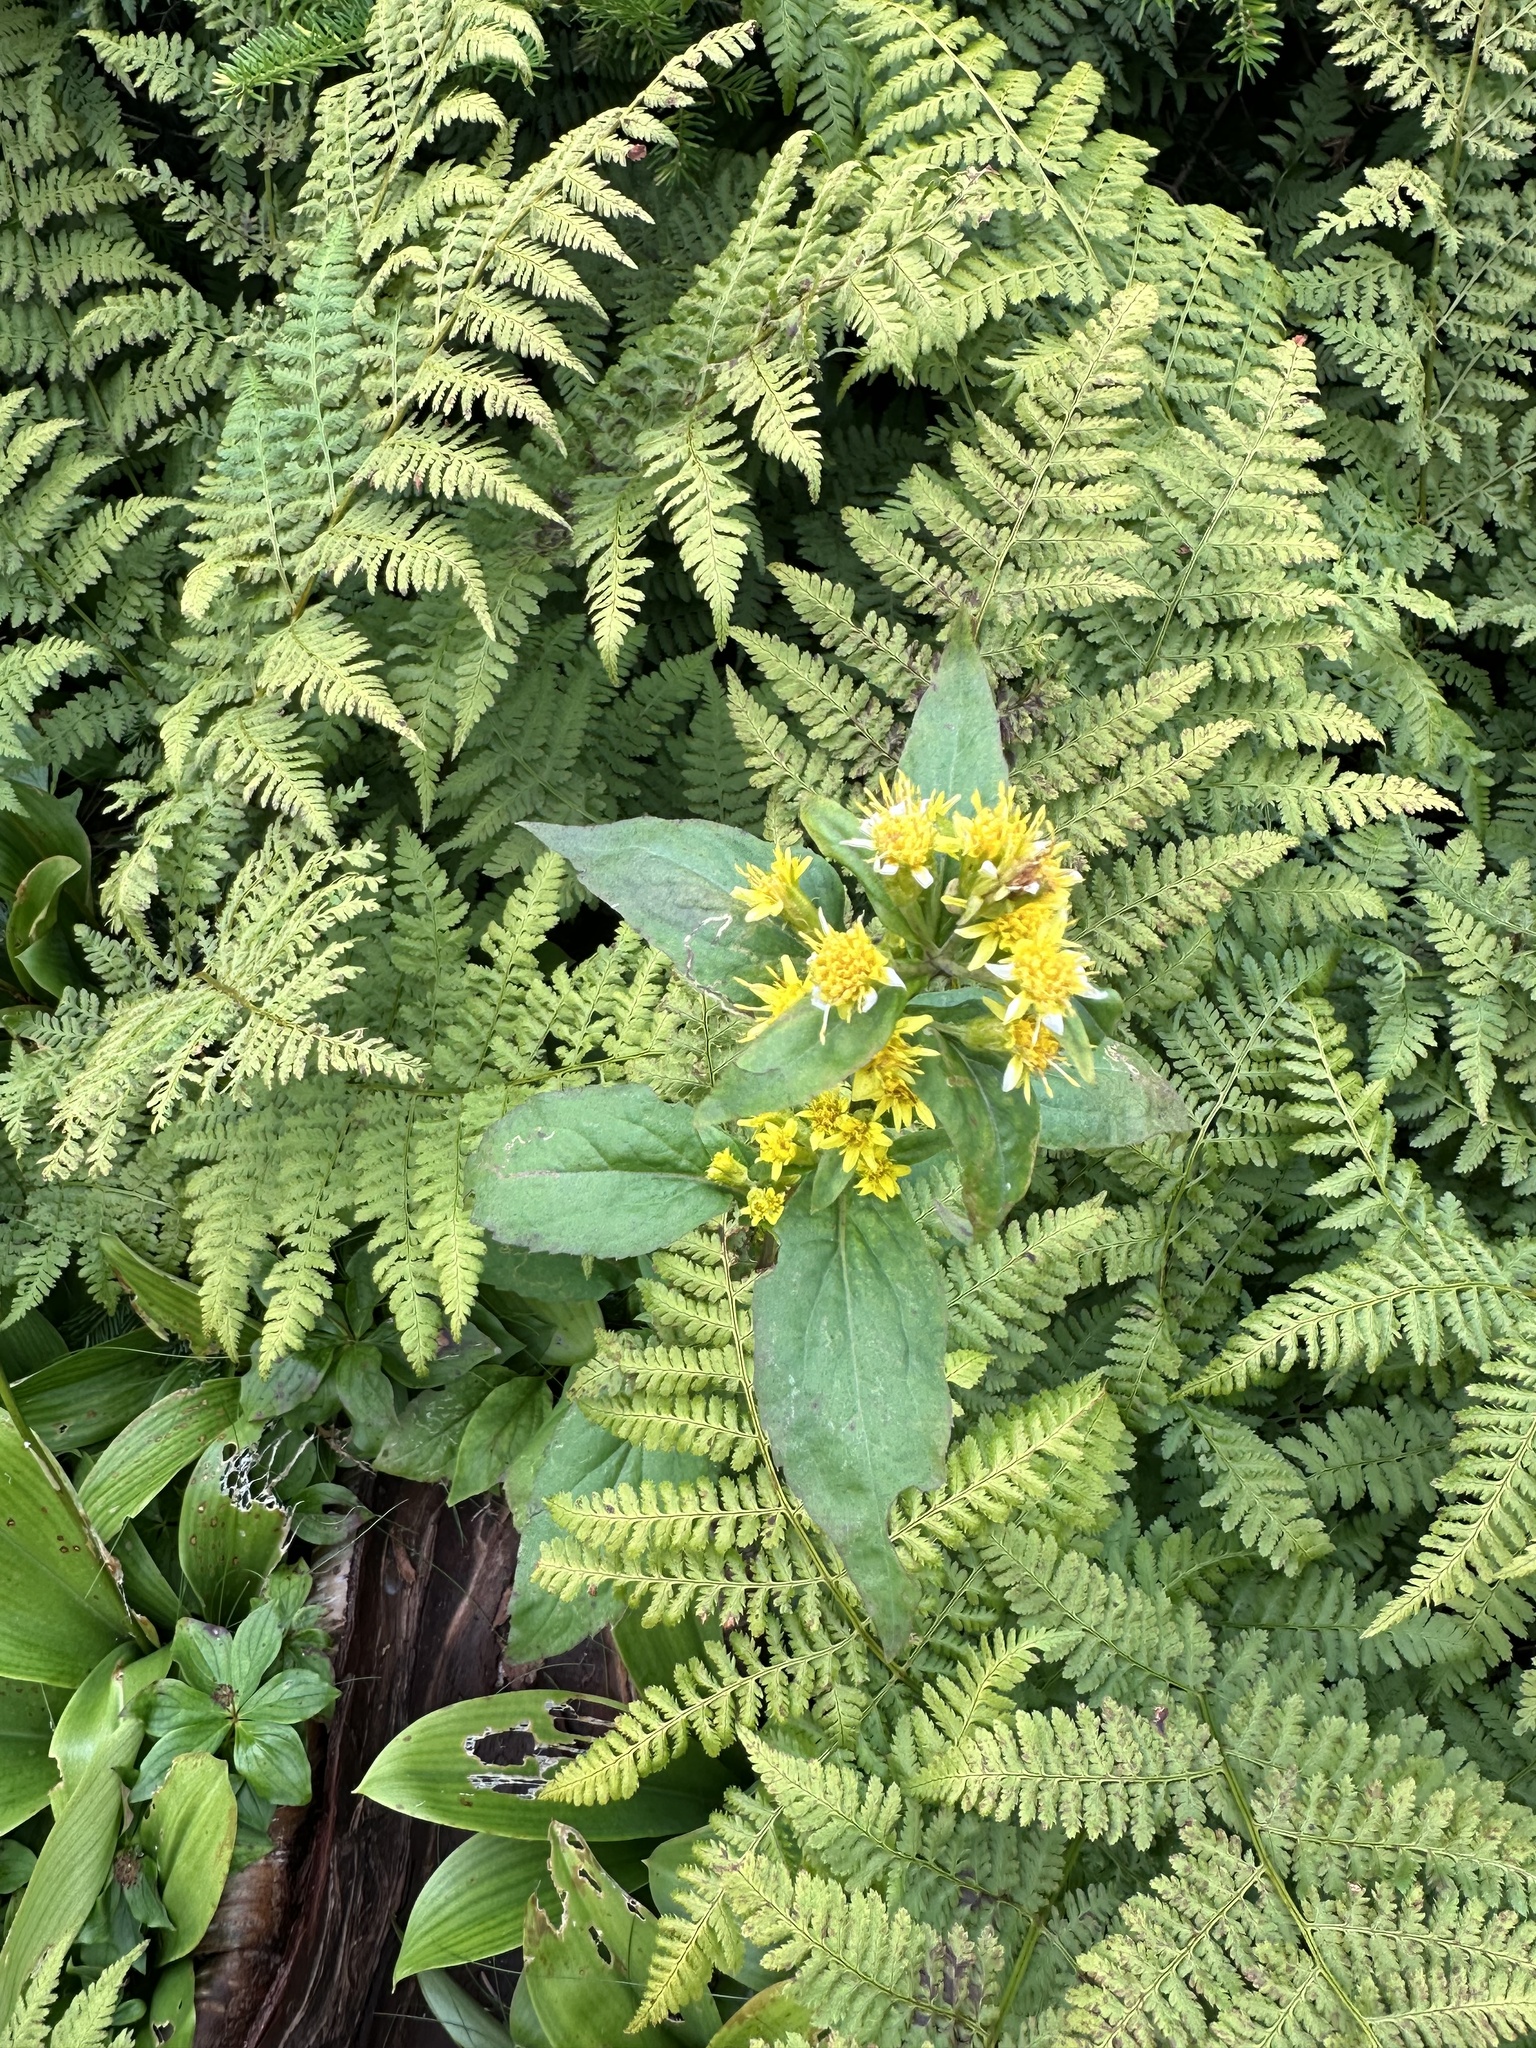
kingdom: Plantae
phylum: Tracheophyta
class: Magnoliopsida
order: Asterales
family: Asteraceae
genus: Solidago
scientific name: Solidago macrophylla
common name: Large-leaved goldenrod
